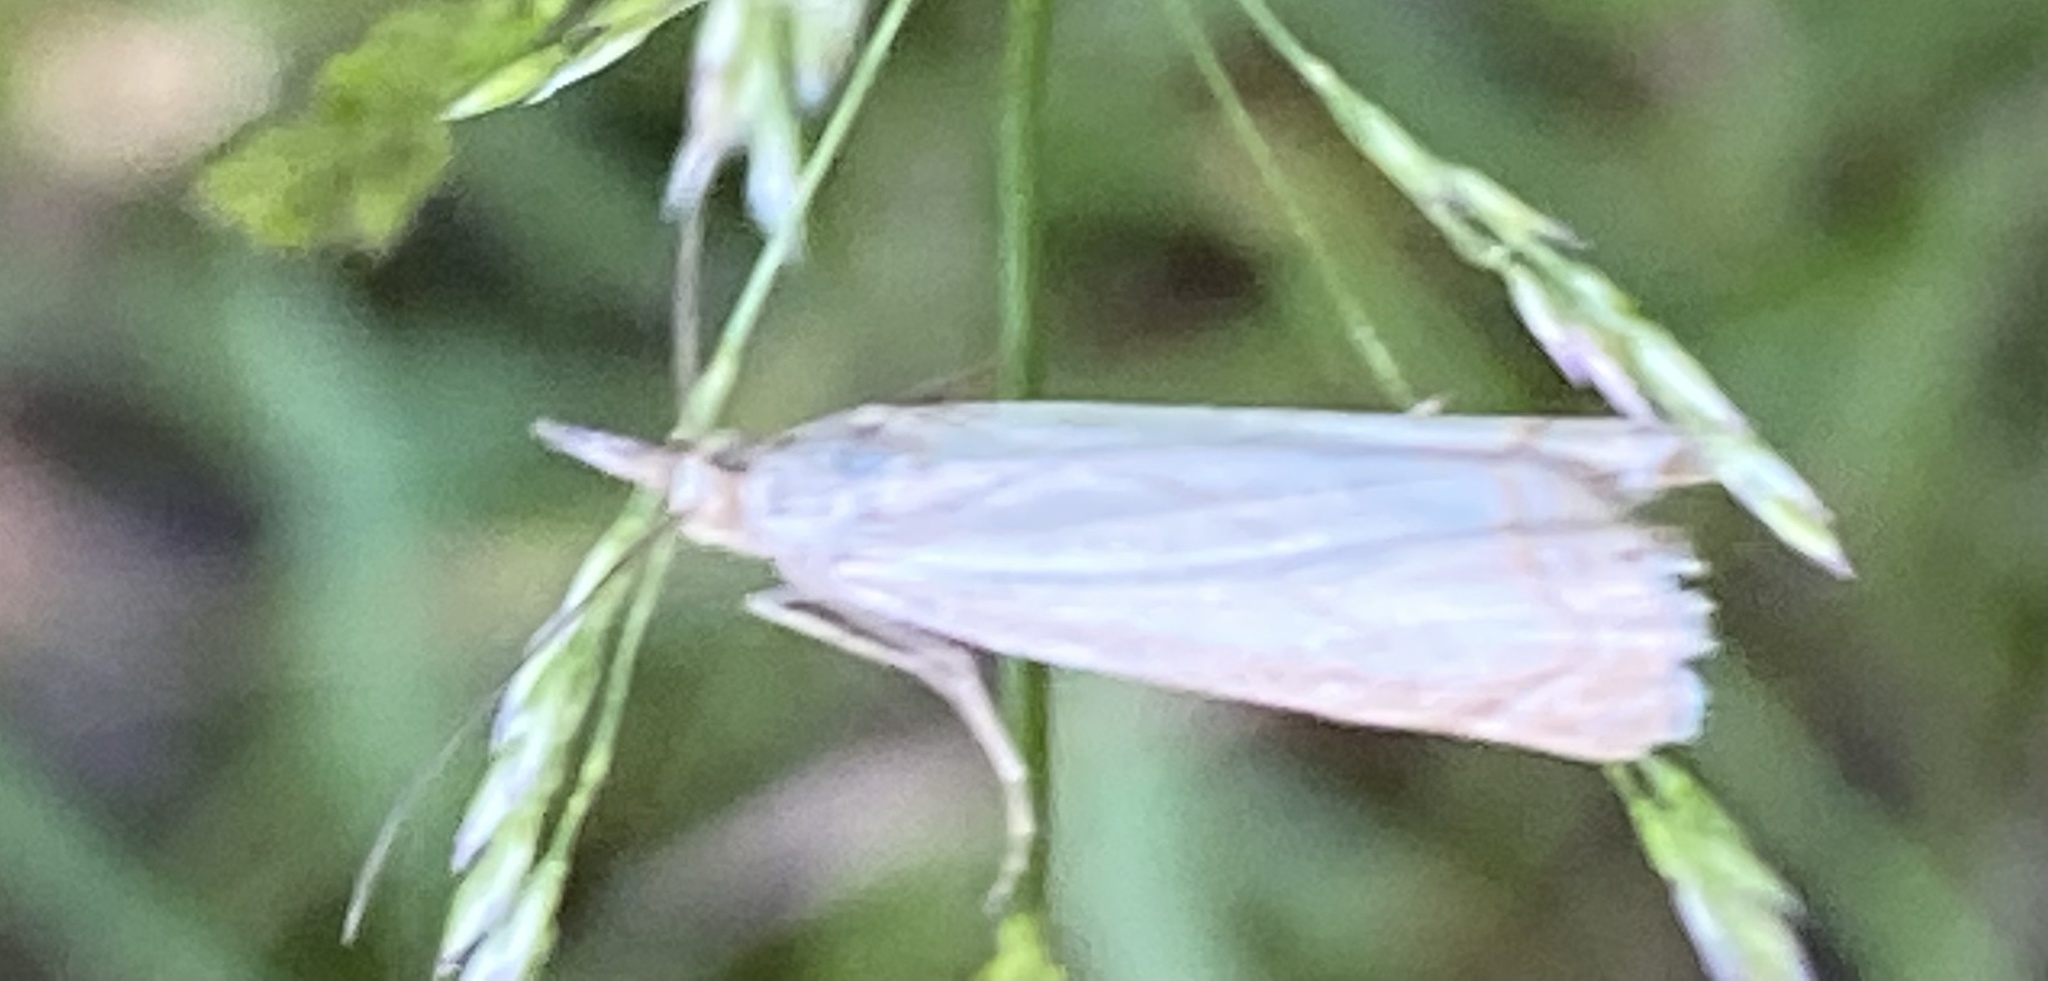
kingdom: Animalia
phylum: Arthropoda
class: Insecta
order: Lepidoptera
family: Crambidae
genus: Crambus
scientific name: Crambus nemorella
